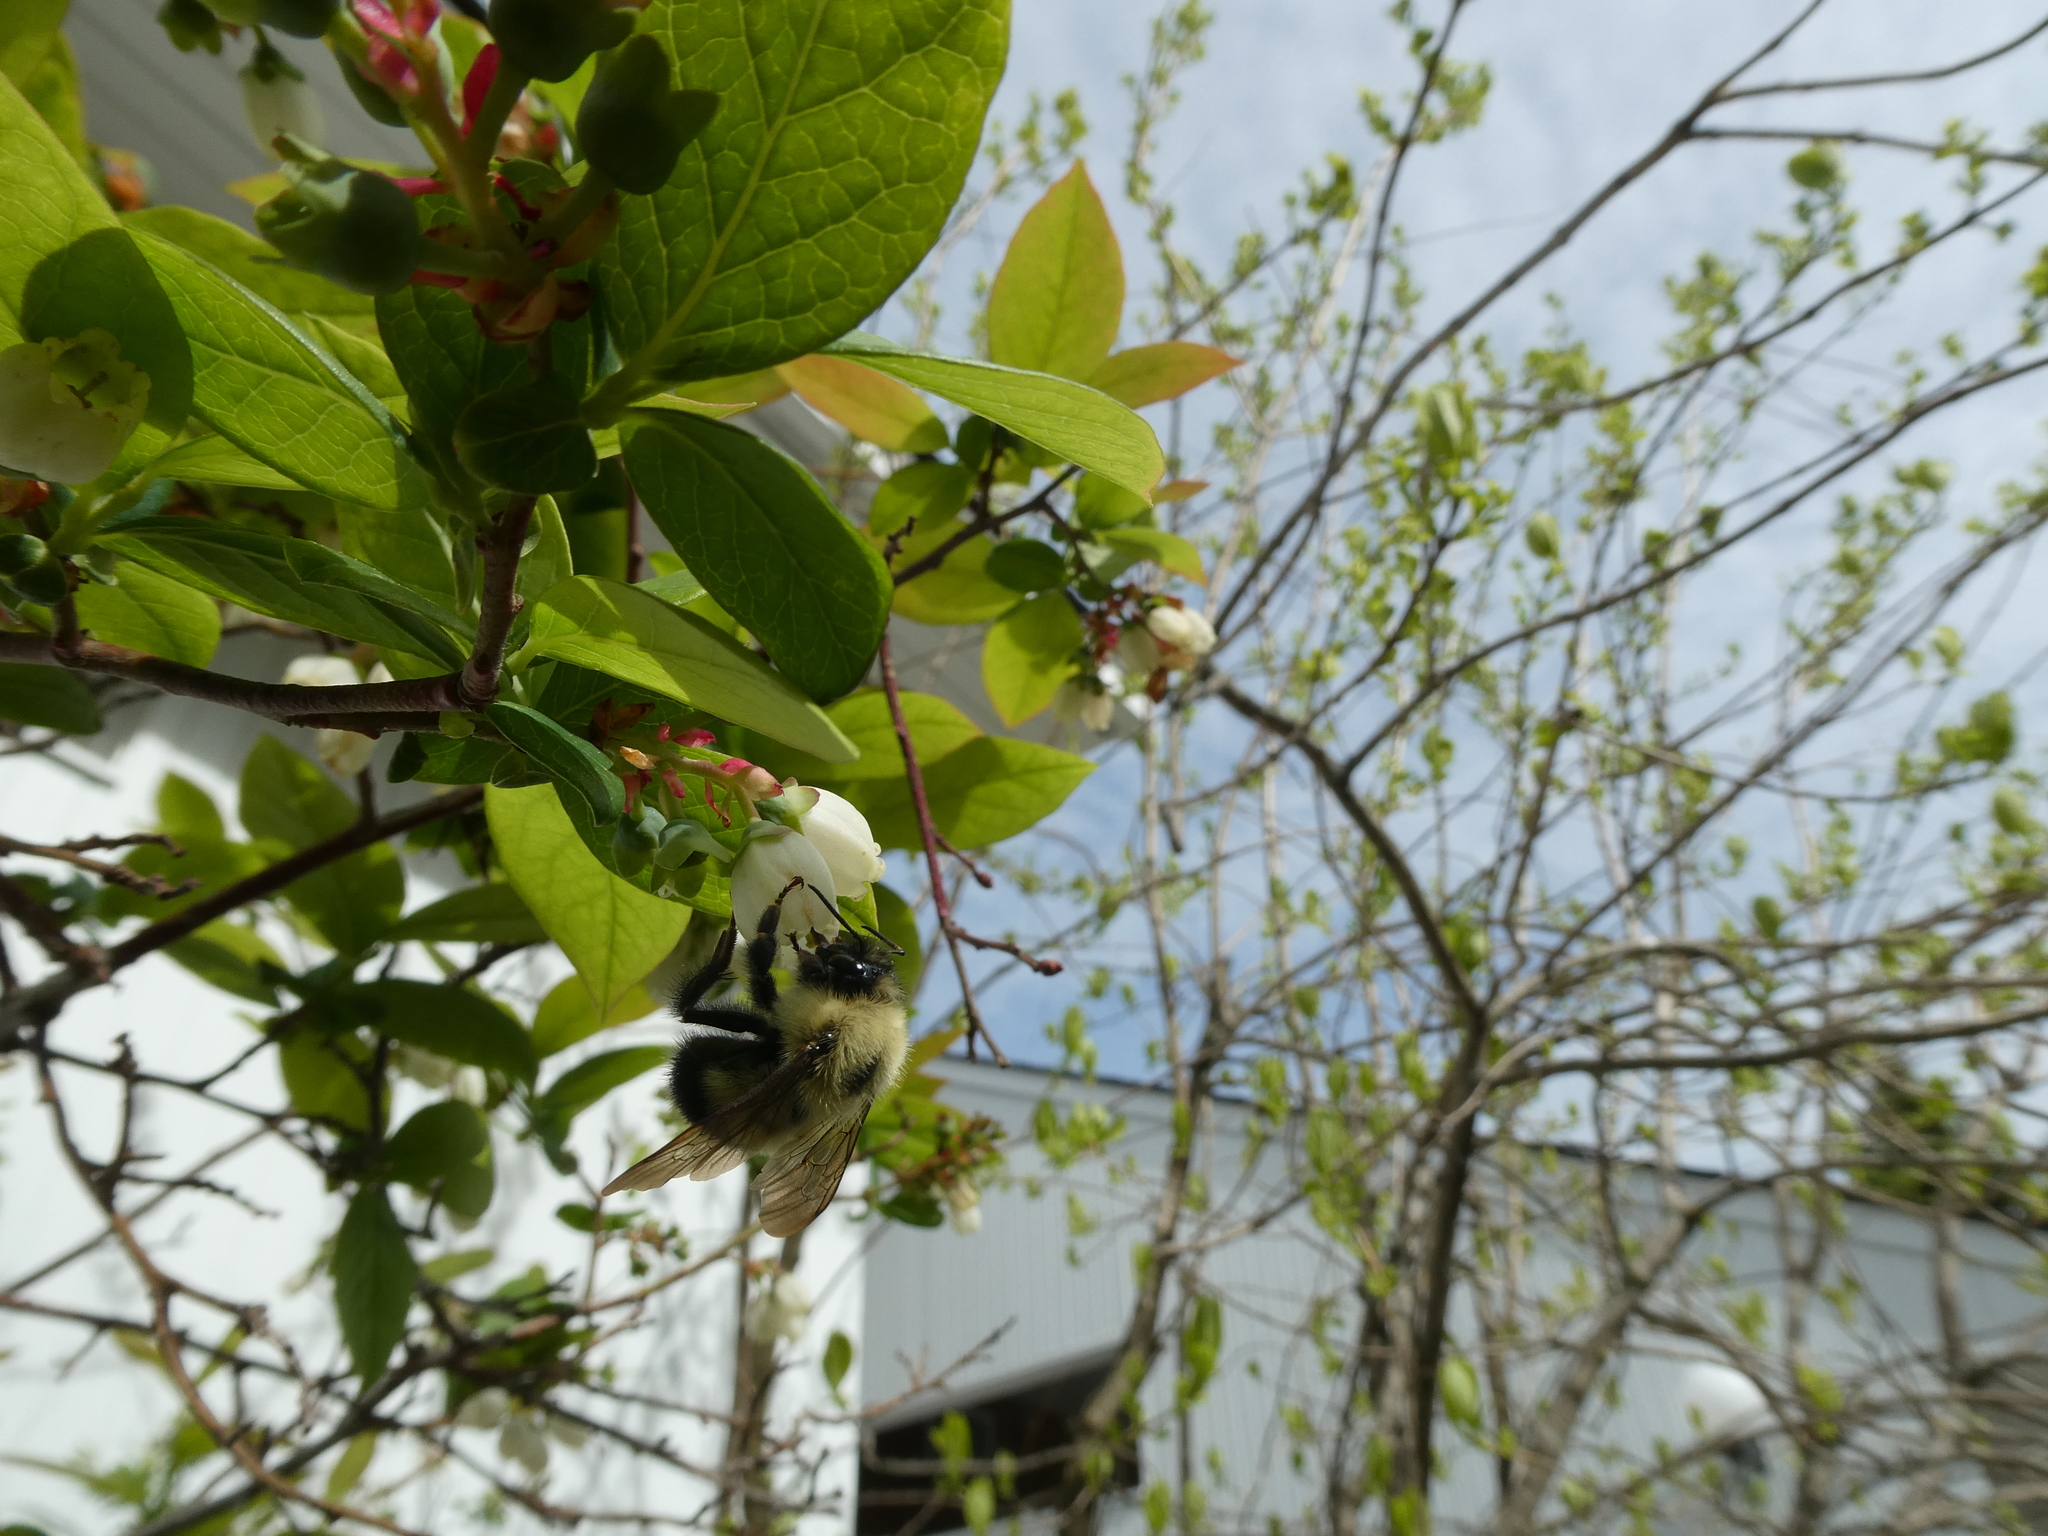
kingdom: Animalia
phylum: Arthropoda
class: Insecta
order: Hymenoptera
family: Apidae
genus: Pyrobombus
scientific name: Pyrobombus
